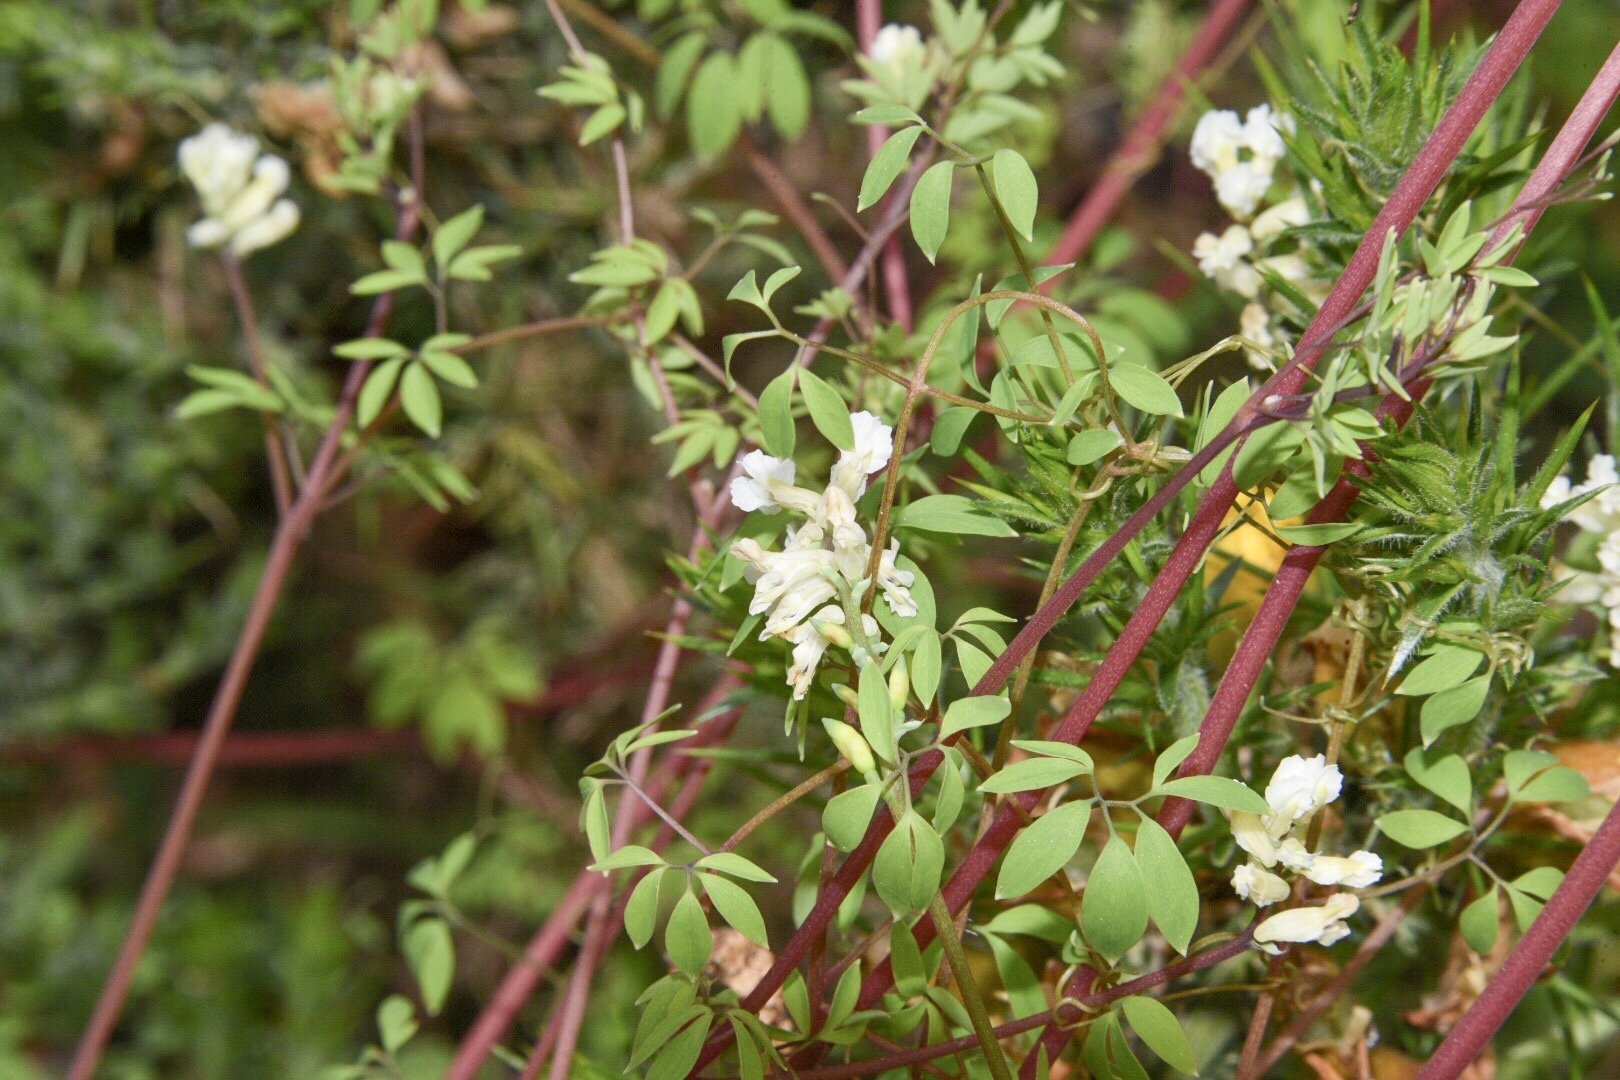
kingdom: Plantae
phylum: Tracheophyta
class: Magnoliopsida
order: Ranunculales
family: Papaveraceae
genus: Ceratocapnos
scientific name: Ceratocapnos claviculata
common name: Climbing corydalis
